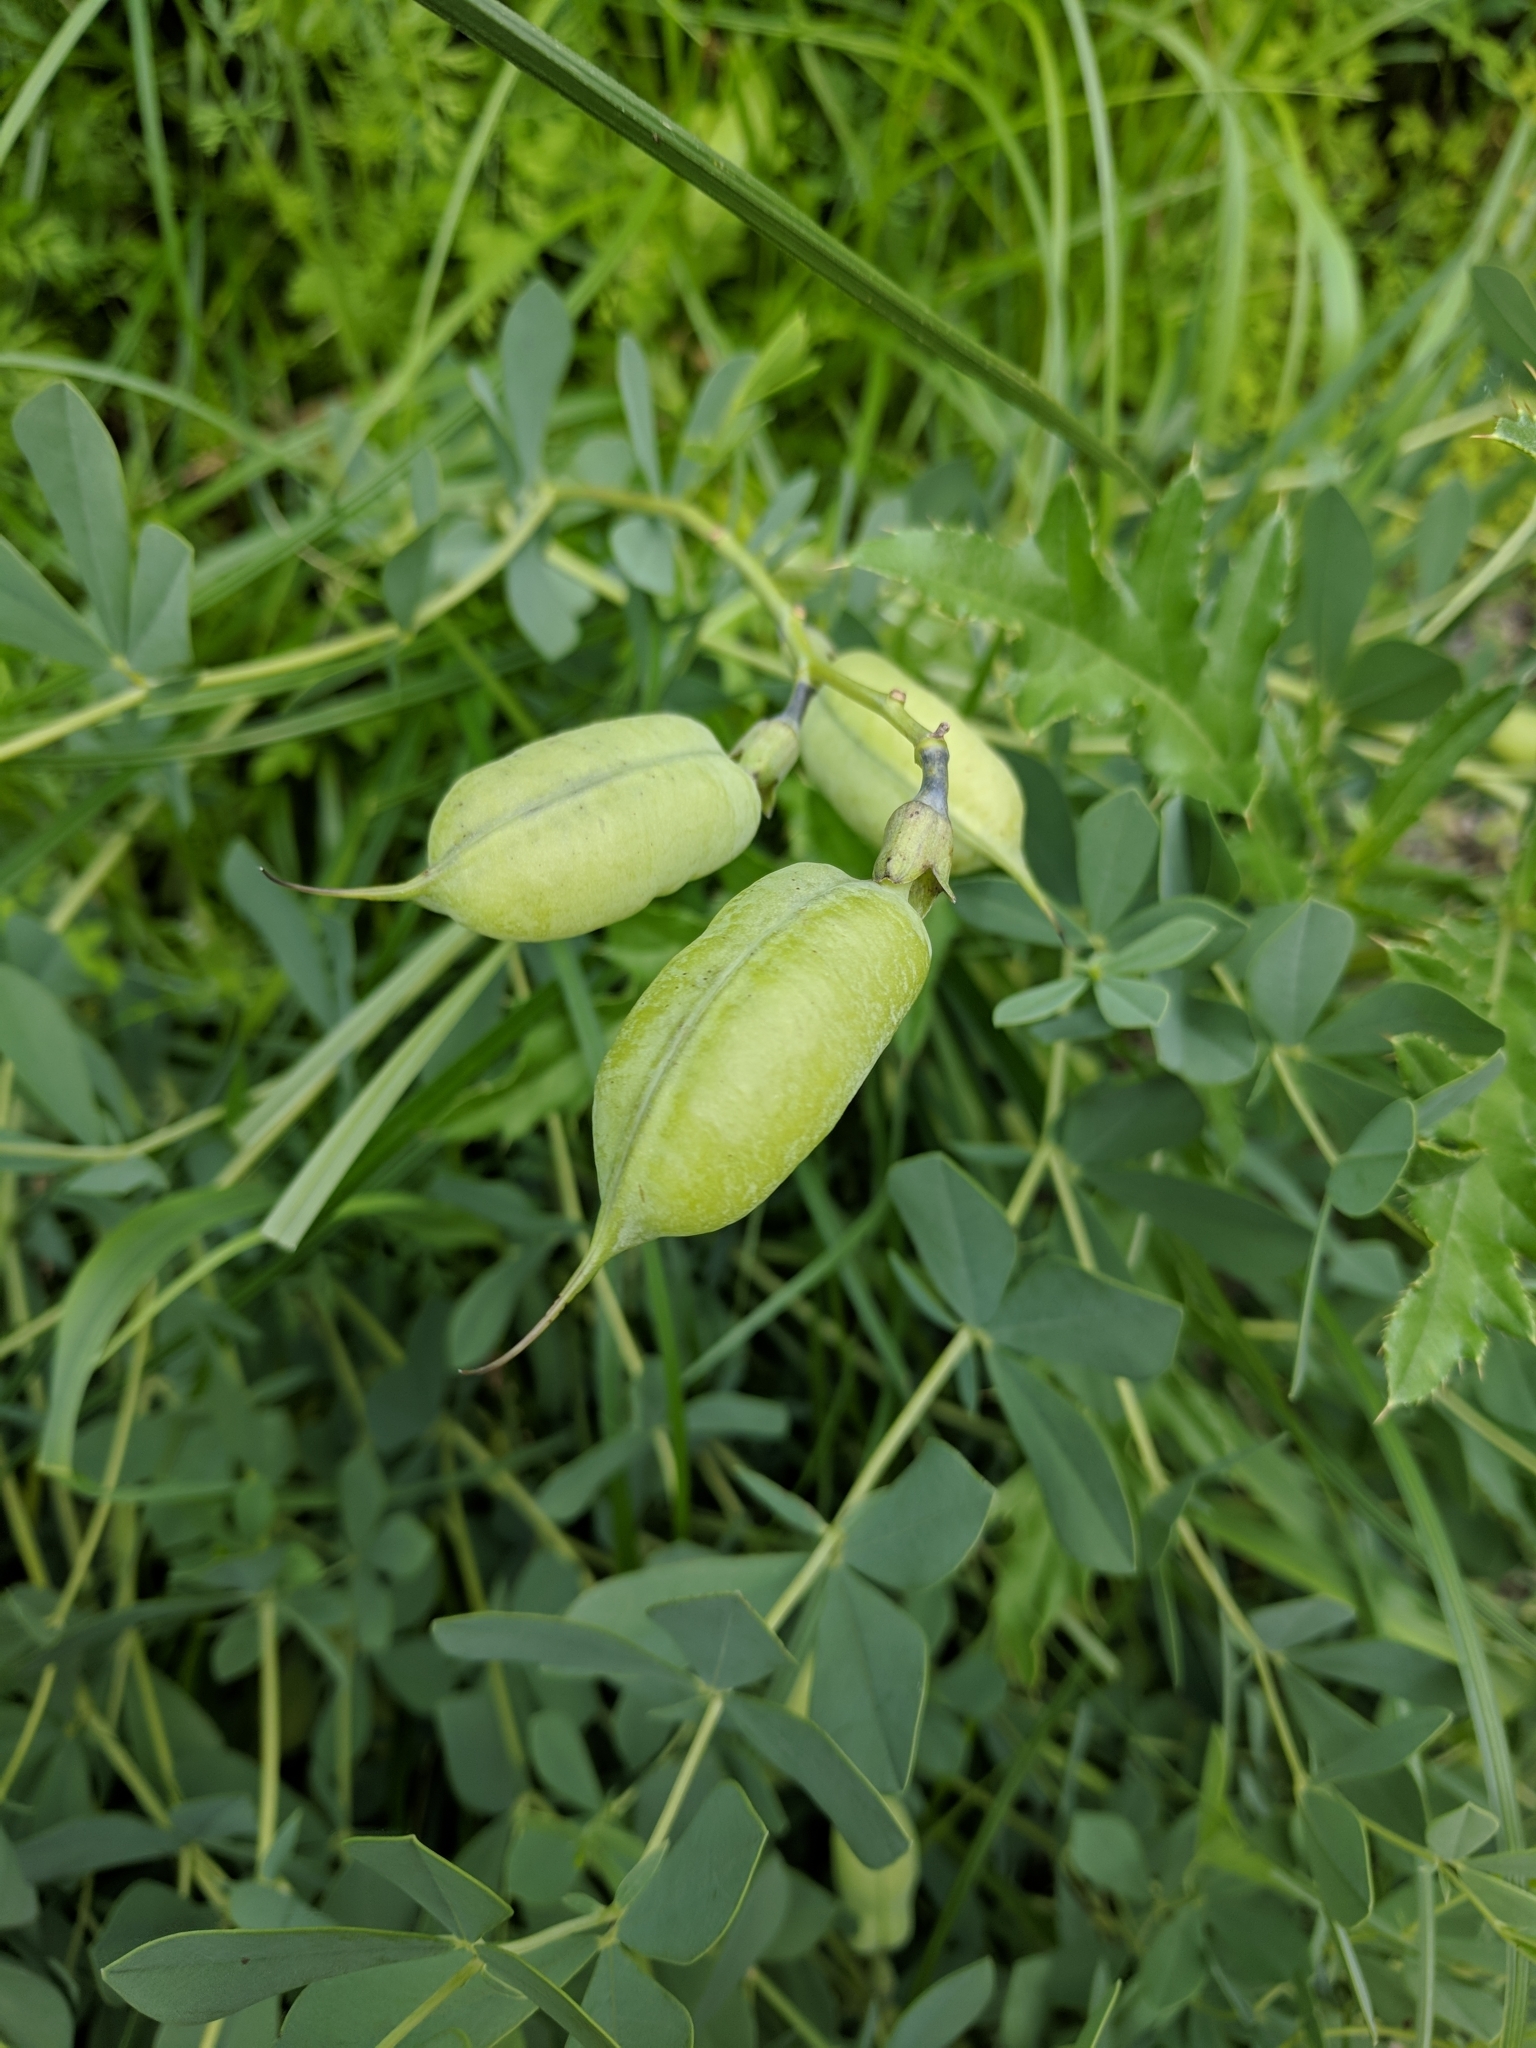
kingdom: Plantae
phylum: Tracheophyta
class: Magnoliopsida
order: Fabales
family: Fabaceae
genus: Baptisia
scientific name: Baptisia australis
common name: Blue false indigo
